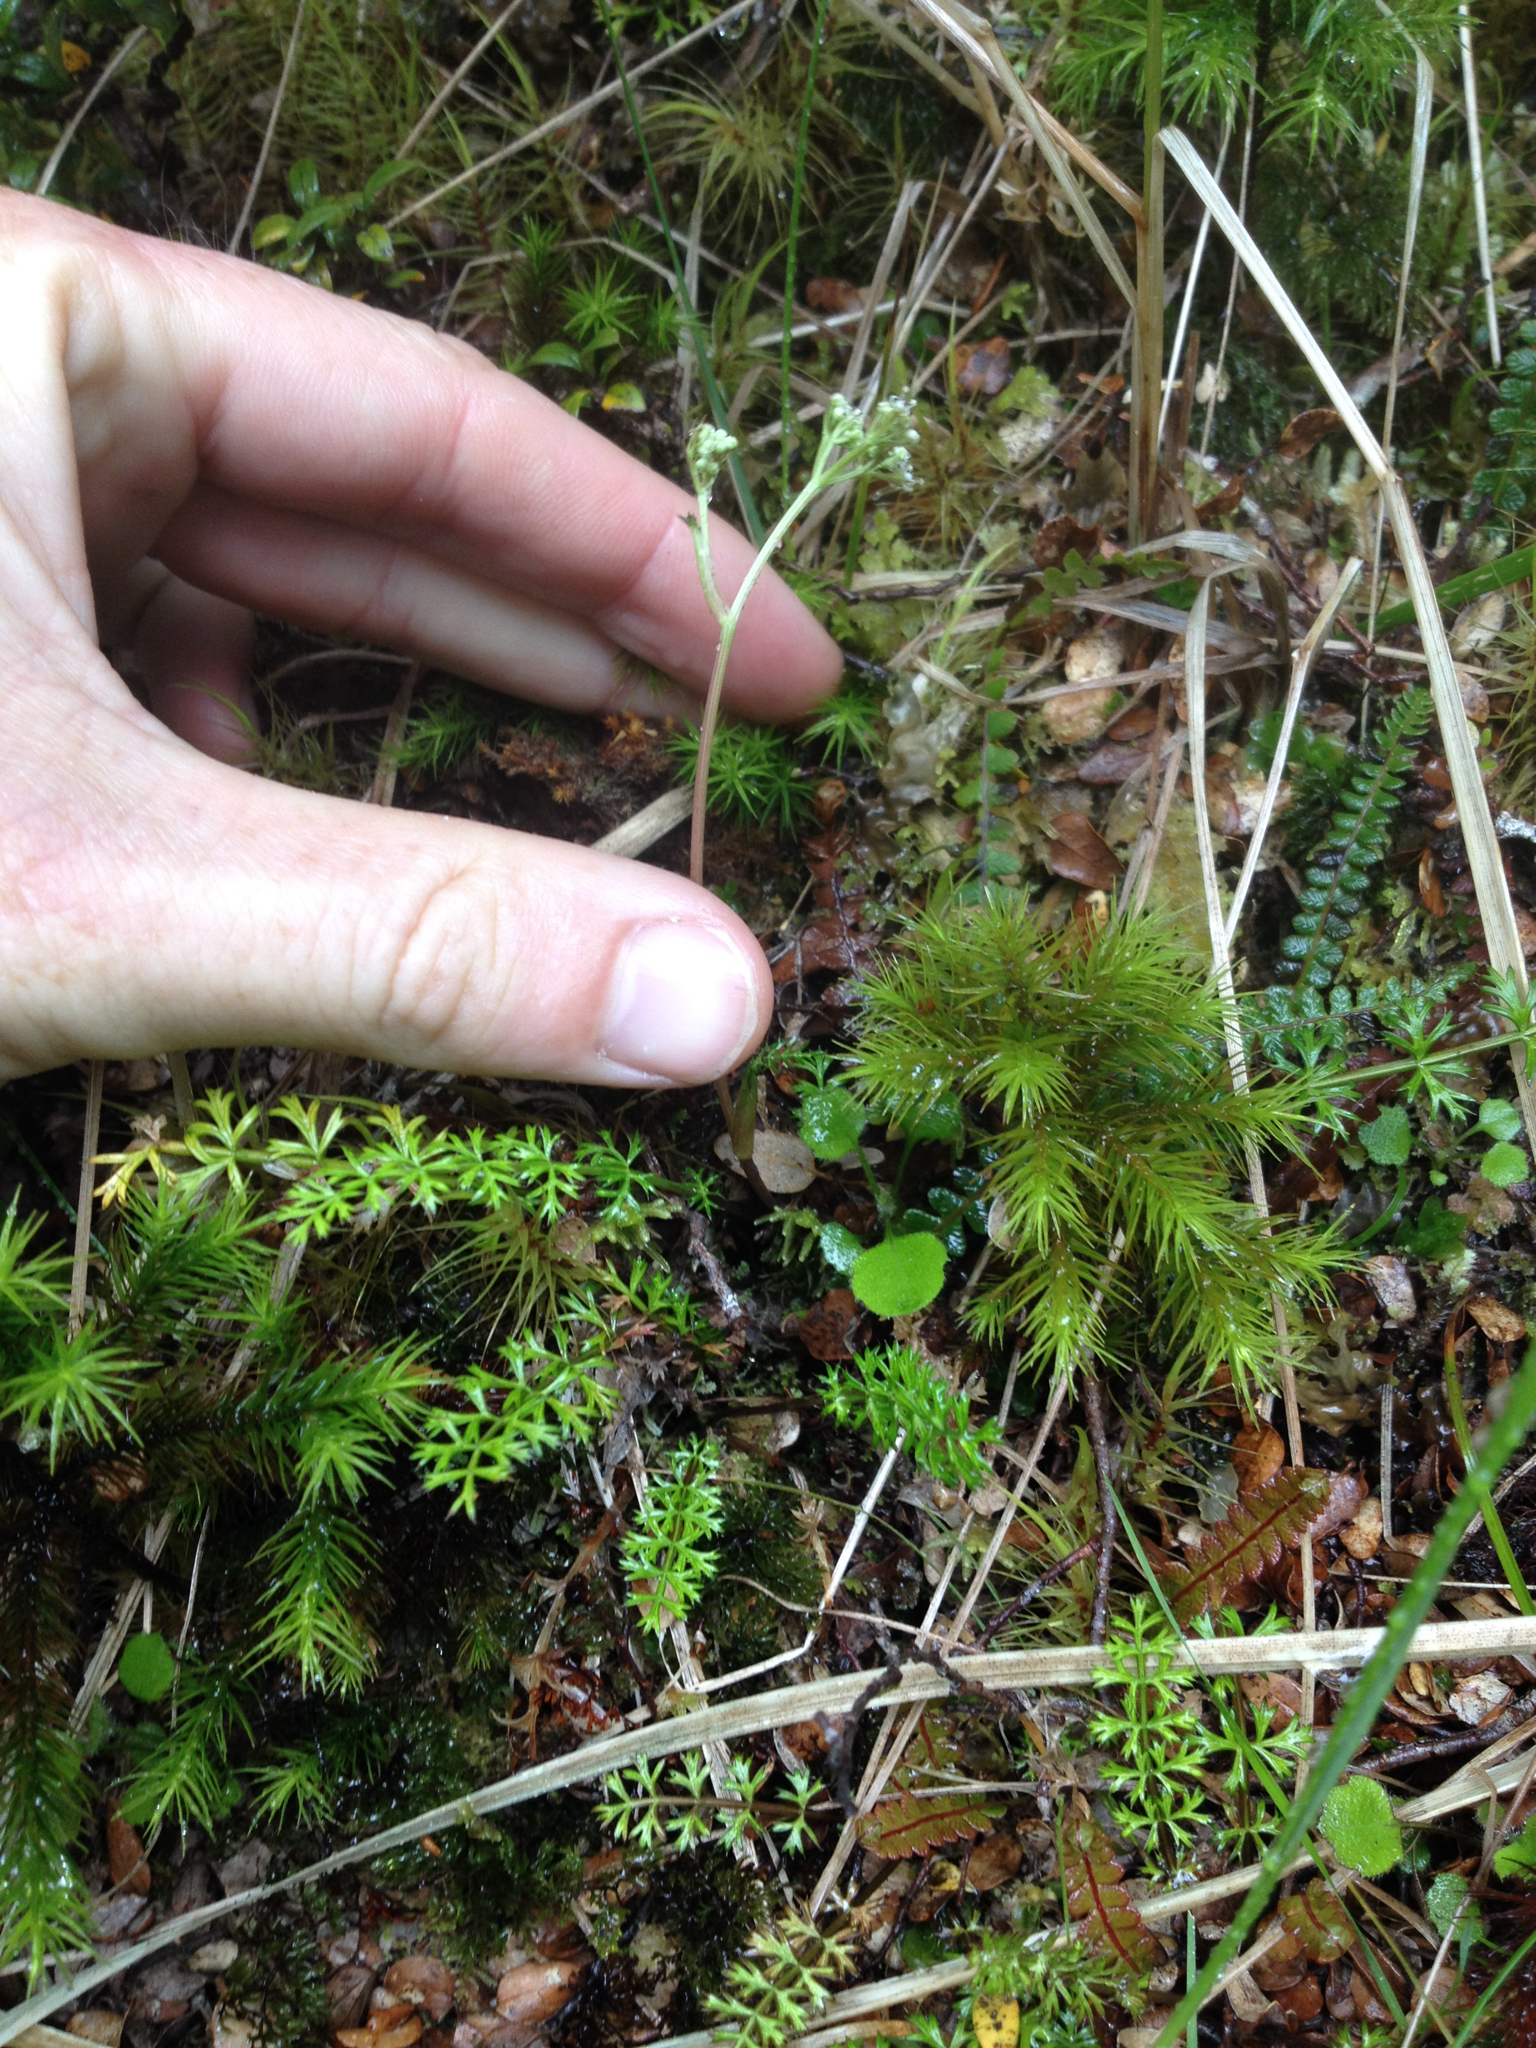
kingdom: Plantae
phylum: Tracheophyta
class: Magnoliopsida
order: Apiales
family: Apiaceae
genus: Anisotome
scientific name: Anisotome aromatica
